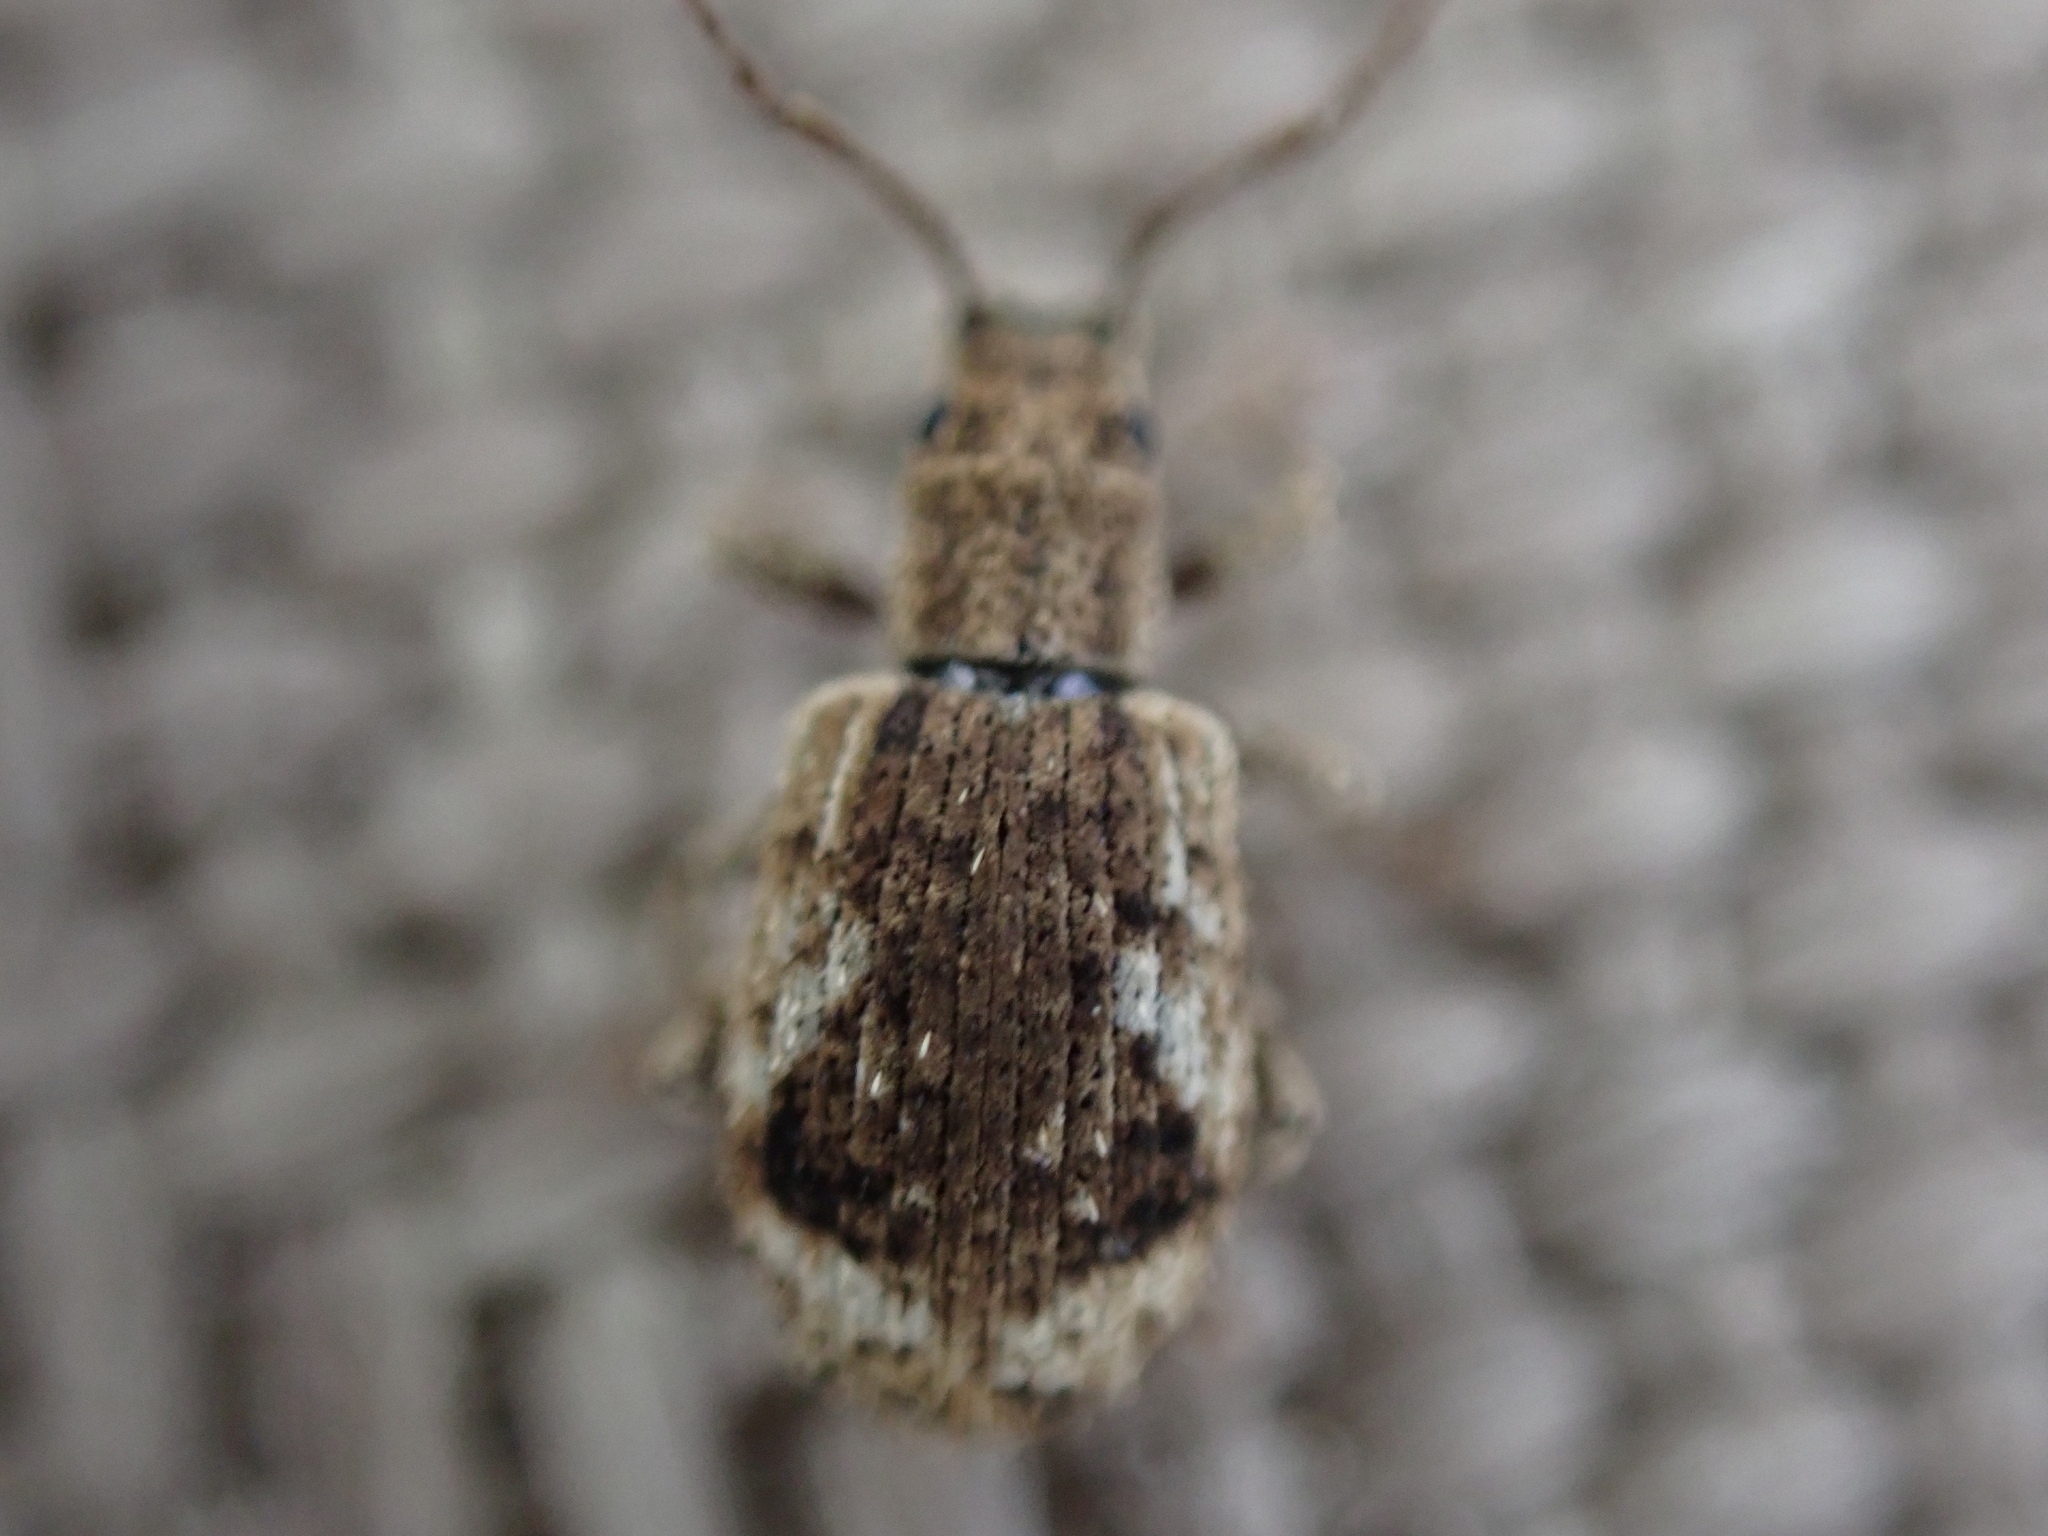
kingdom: Animalia
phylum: Arthropoda
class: Insecta
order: Coleoptera
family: Curculionidae
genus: Pseudoedophrys
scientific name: Pseudoedophrys hilleri
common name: Weevil
